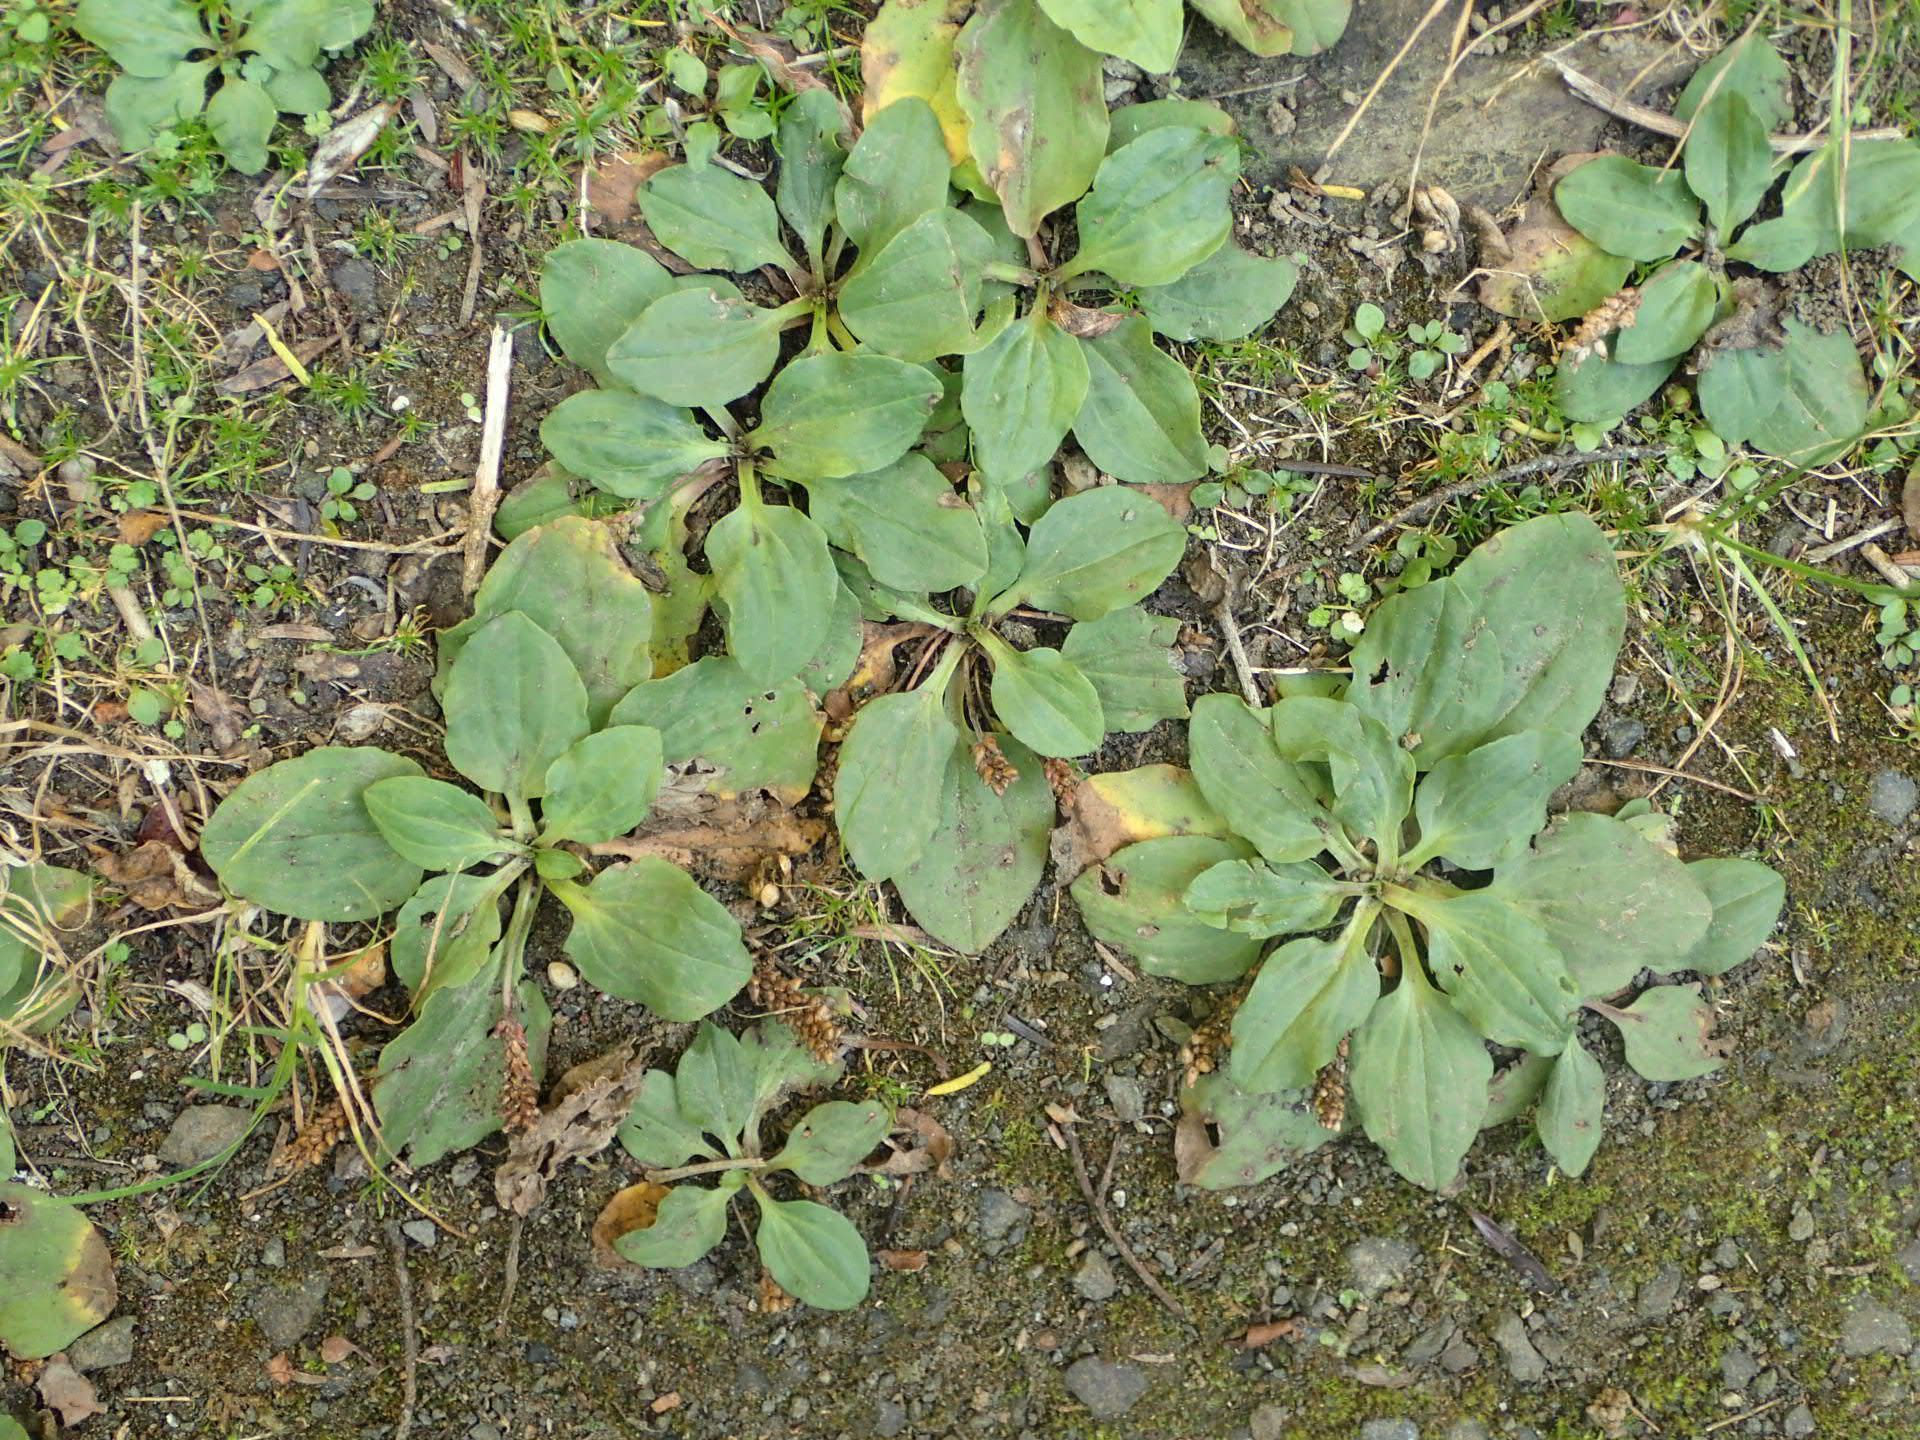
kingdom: Plantae
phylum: Tracheophyta
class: Magnoliopsida
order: Lamiales
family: Plantaginaceae
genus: Plantago
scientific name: Plantago major
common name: Common plantain
